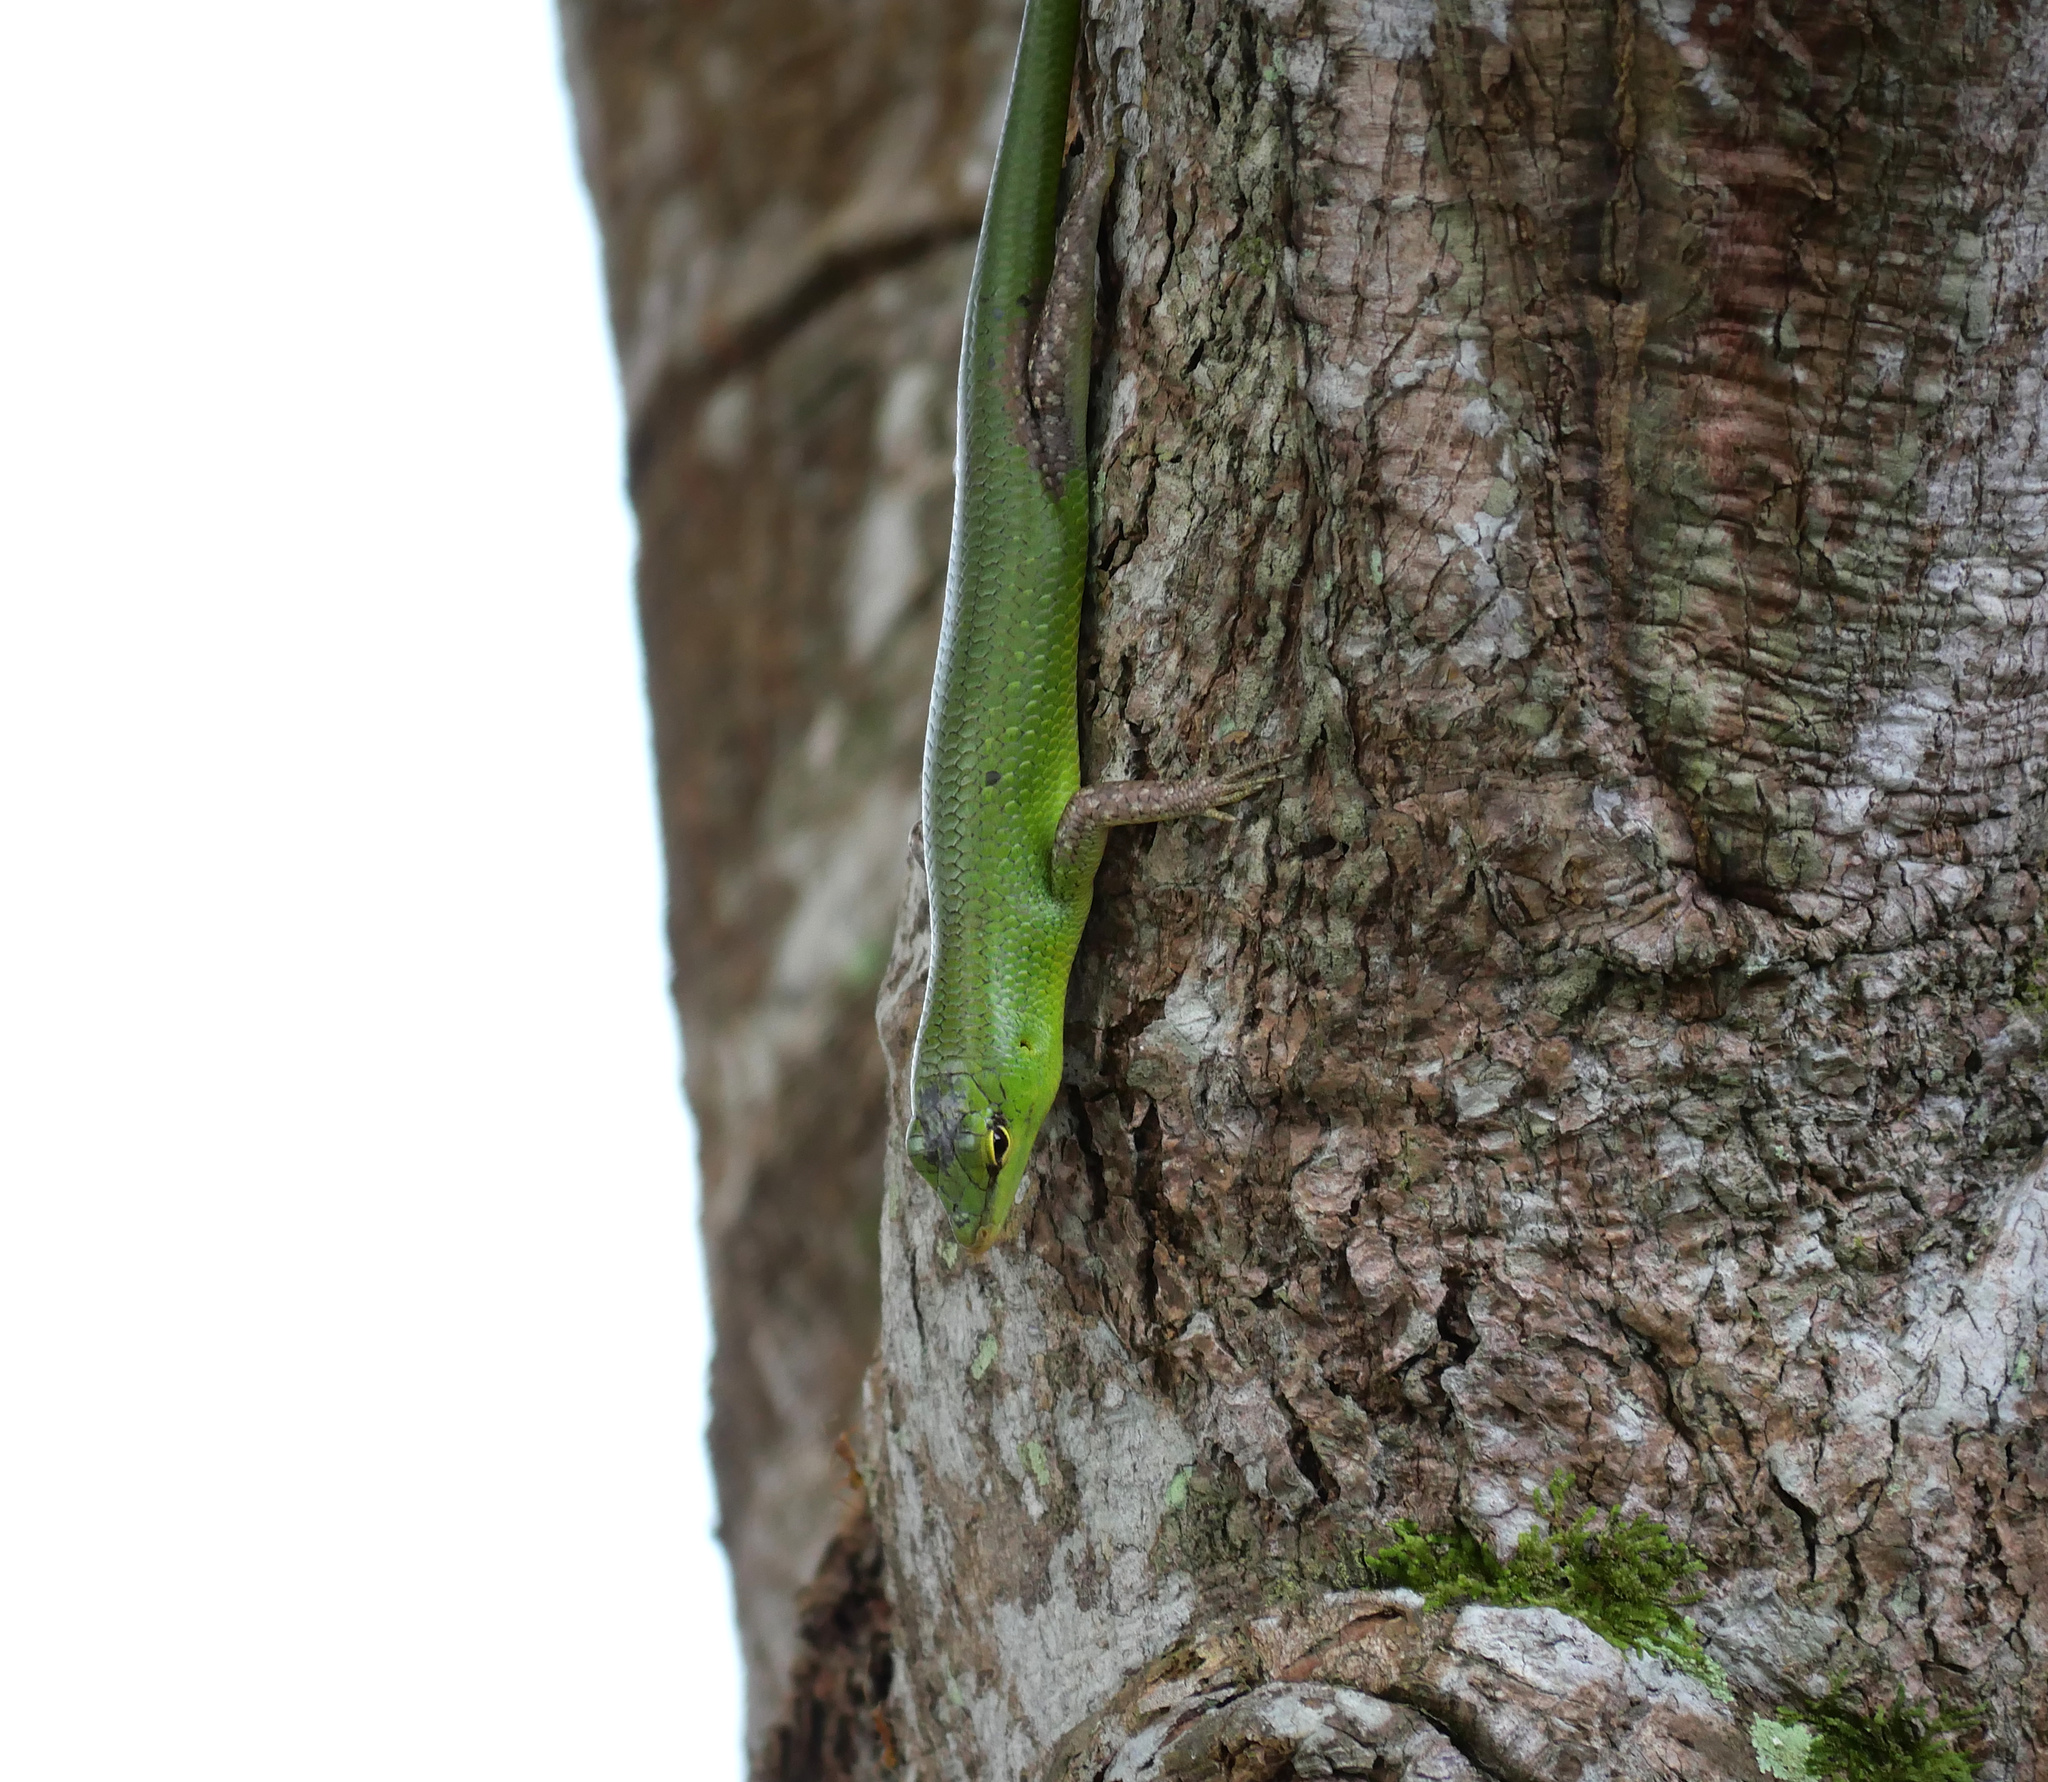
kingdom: Animalia
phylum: Chordata
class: Squamata
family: Scincidae
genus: Lamprolepis
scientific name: Lamprolepis smaragdina
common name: Emerald skink
